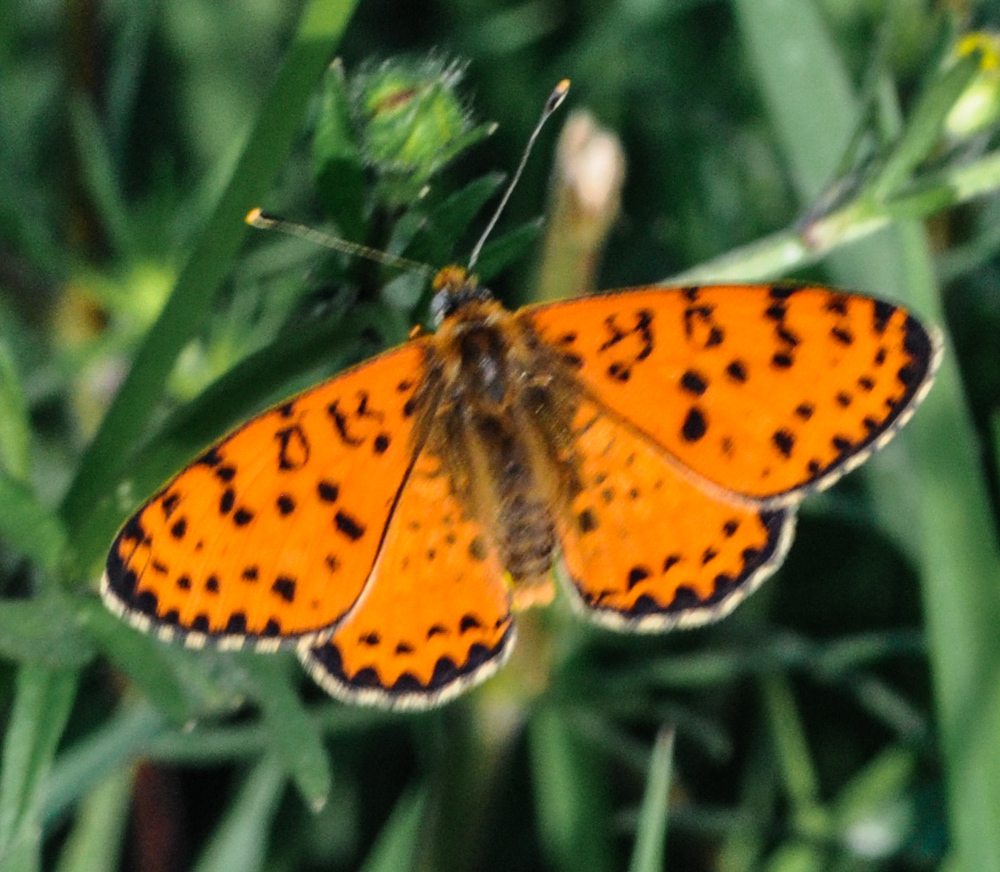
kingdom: Animalia
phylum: Arthropoda
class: Insecta
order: Lepidoptera
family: Nymphalidae
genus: Melitaea
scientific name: Melitaea didyma
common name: Spotted fritillary
